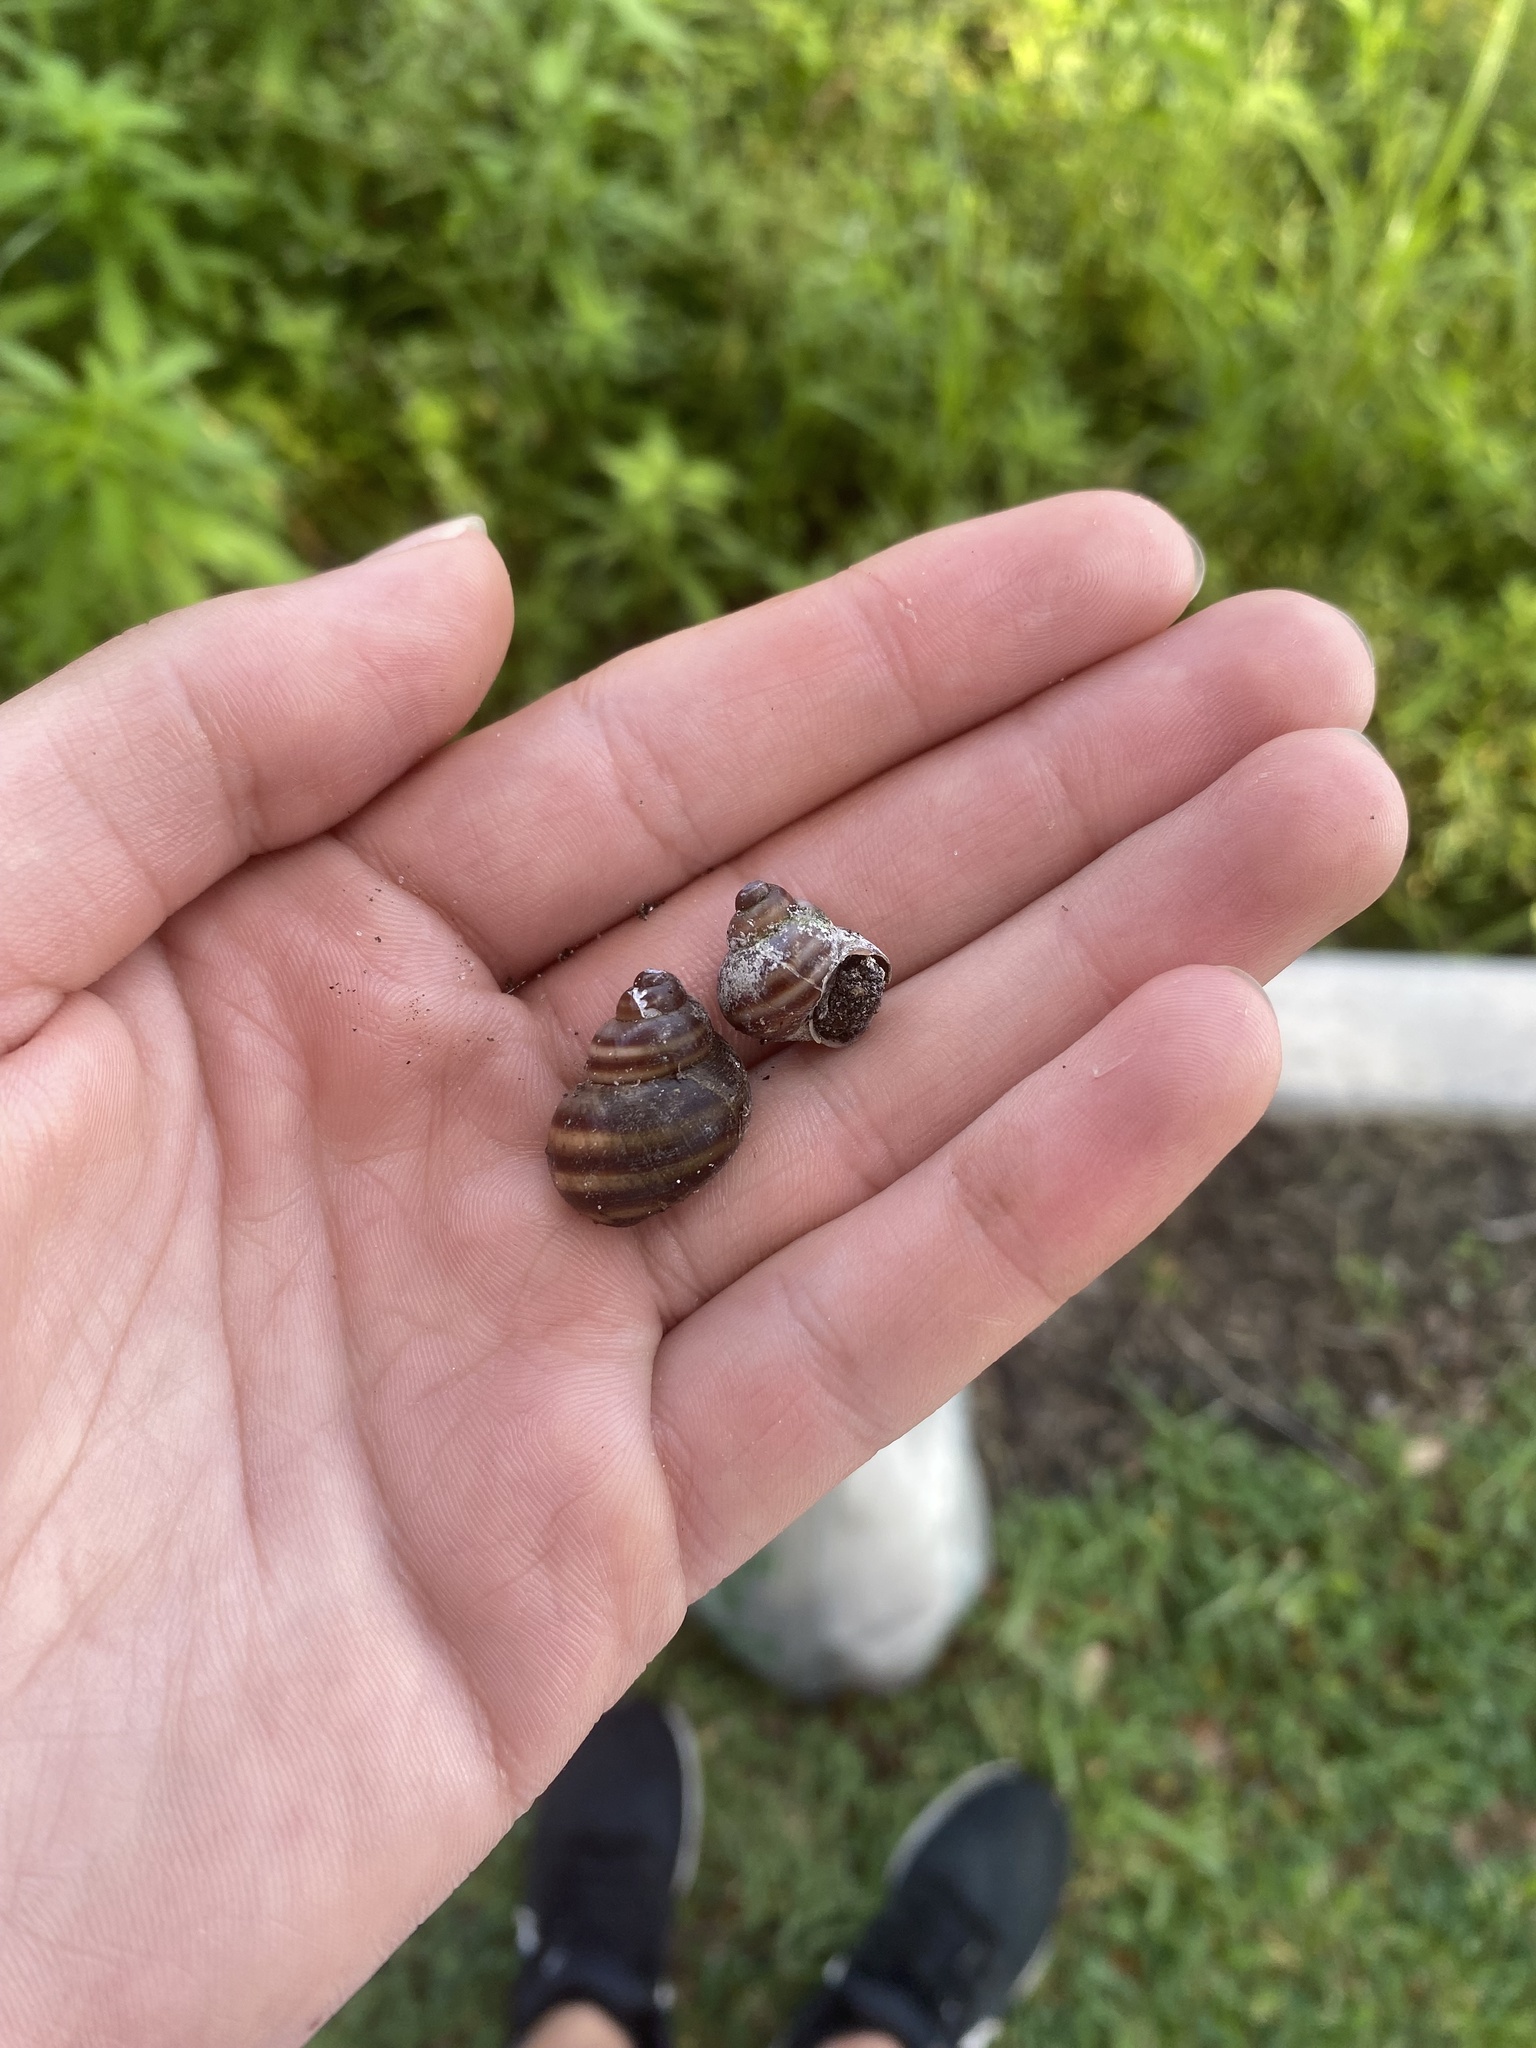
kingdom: Animalia
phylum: Mollusca
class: Gastropoda
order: Architaenioglossa
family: Viviparidae
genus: Callinina
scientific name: Callinina georgiana
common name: Banded mystery snail
